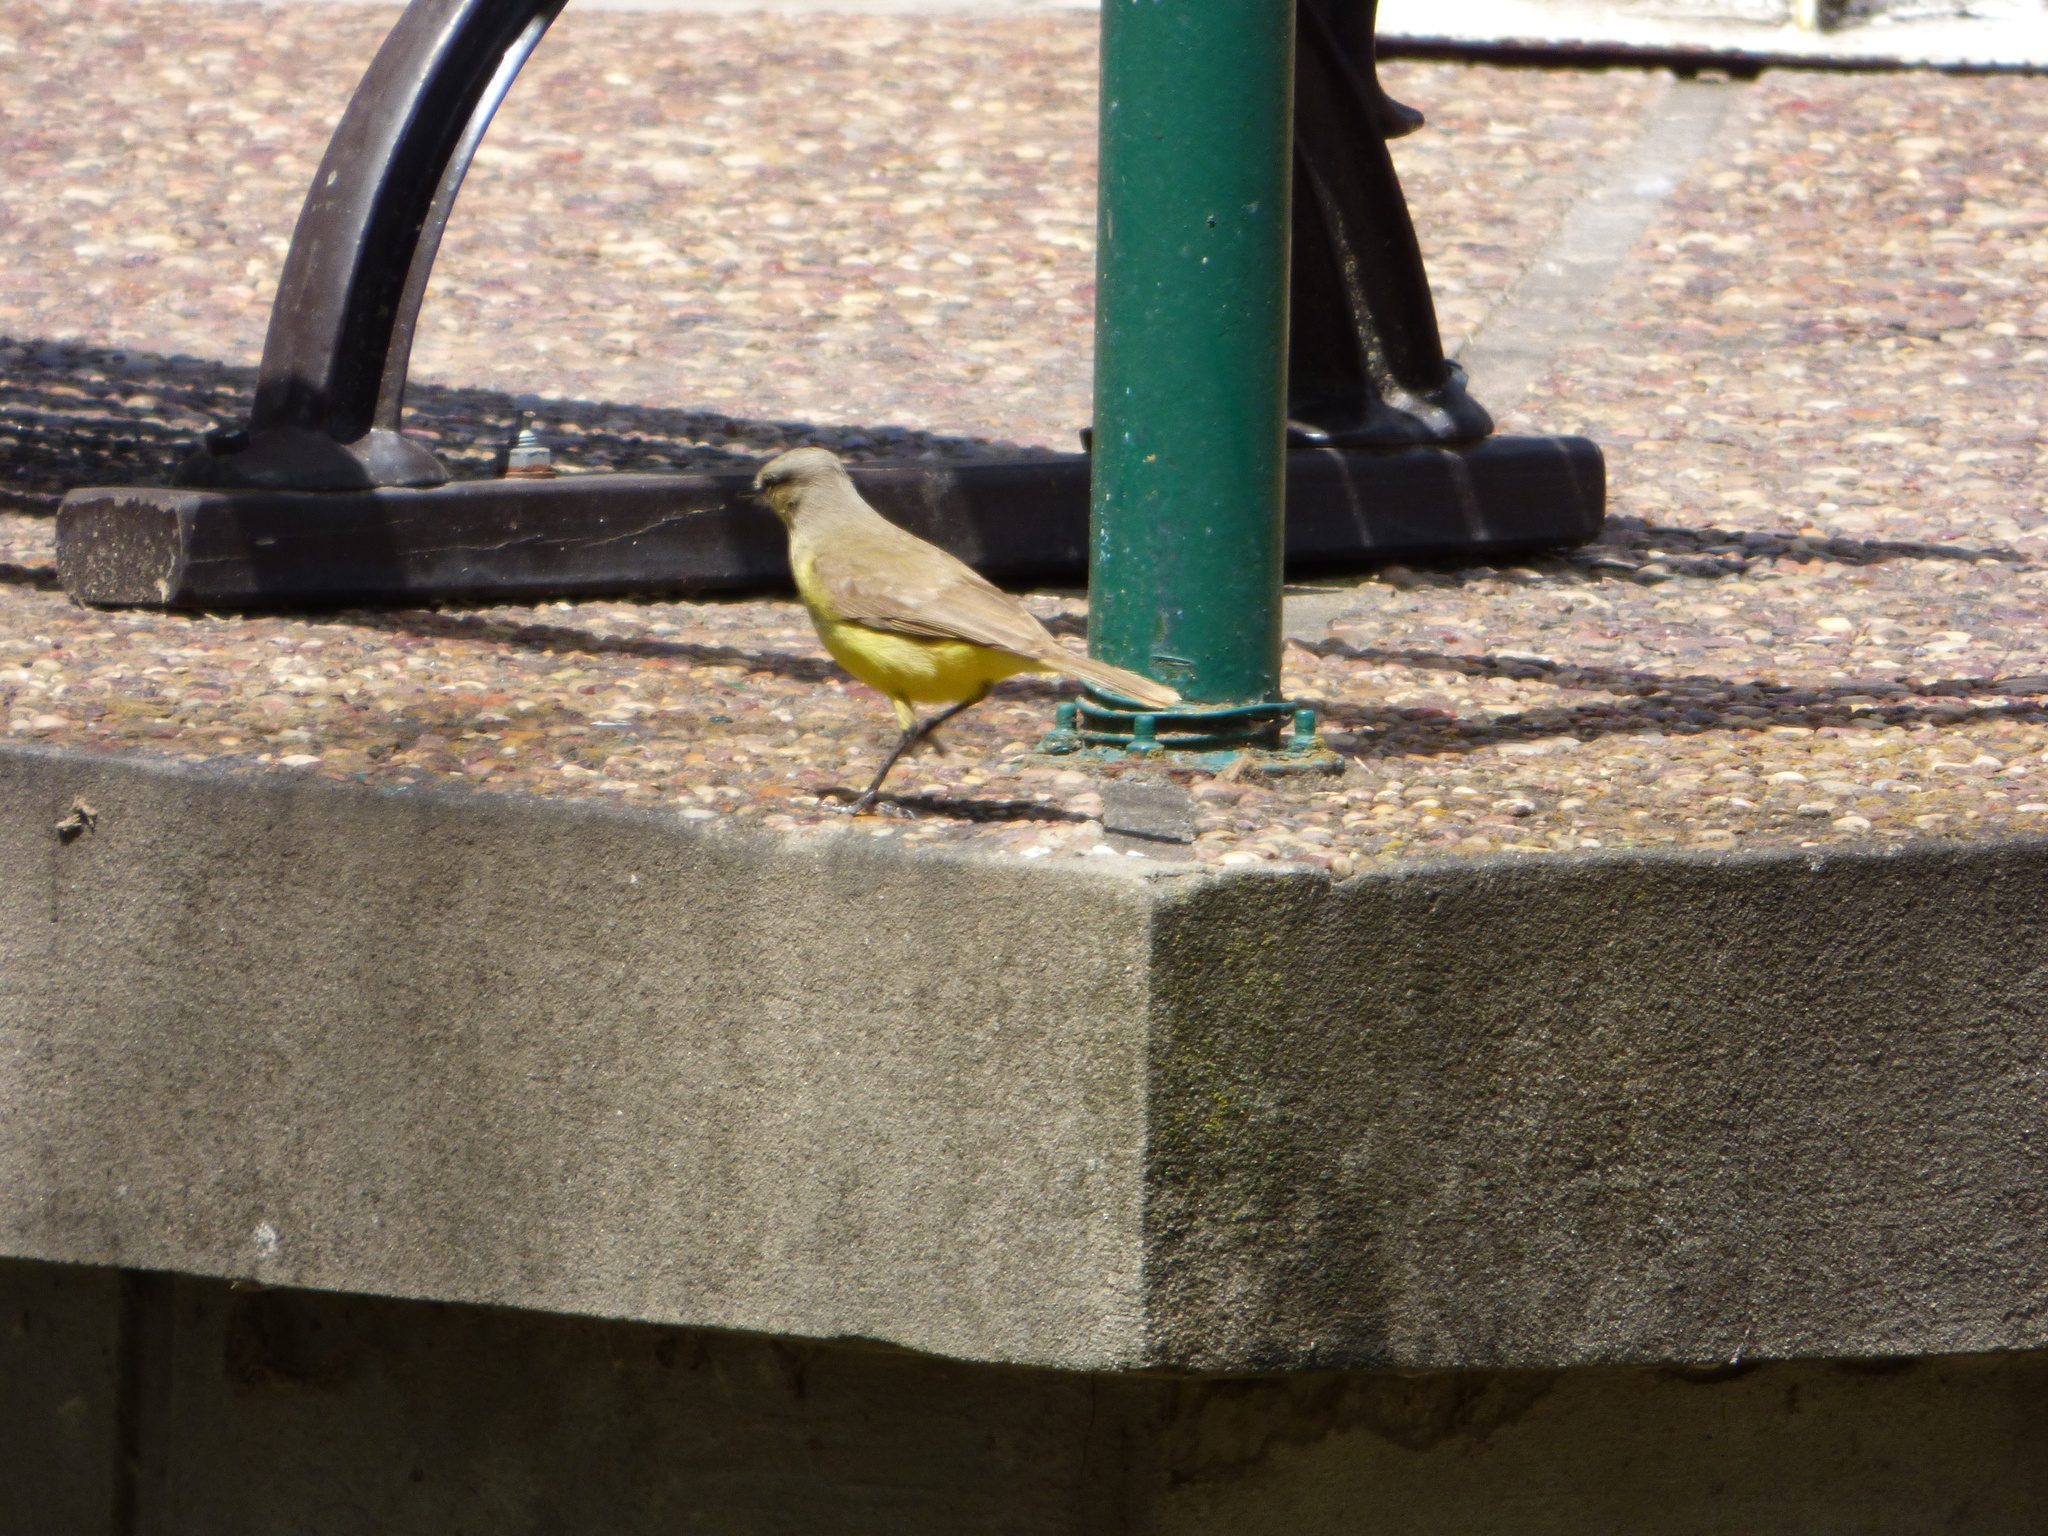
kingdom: Animalia
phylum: Chordata
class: Aves
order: Passeriformes
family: Tyrannidae
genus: Machetornis
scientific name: Machetornis rixosa
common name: Cattle tyrant
